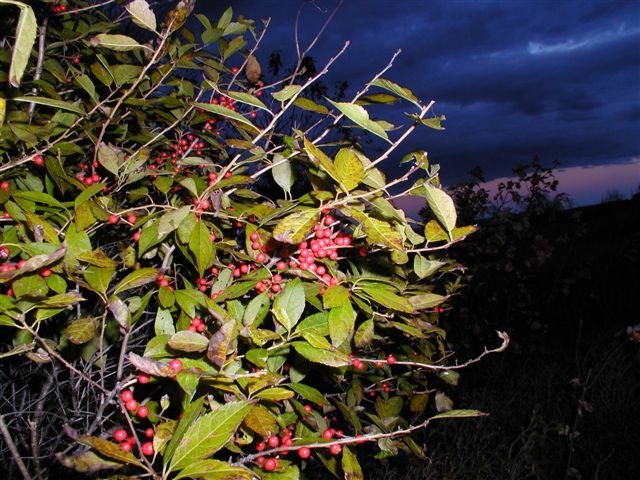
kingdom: Plantae
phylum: Tracheophyta
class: Magnoliopsida
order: Aquifoliales
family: Aquifoliaceae
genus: Ilex
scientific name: Ilex verticillata
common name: Virginia winterberry
